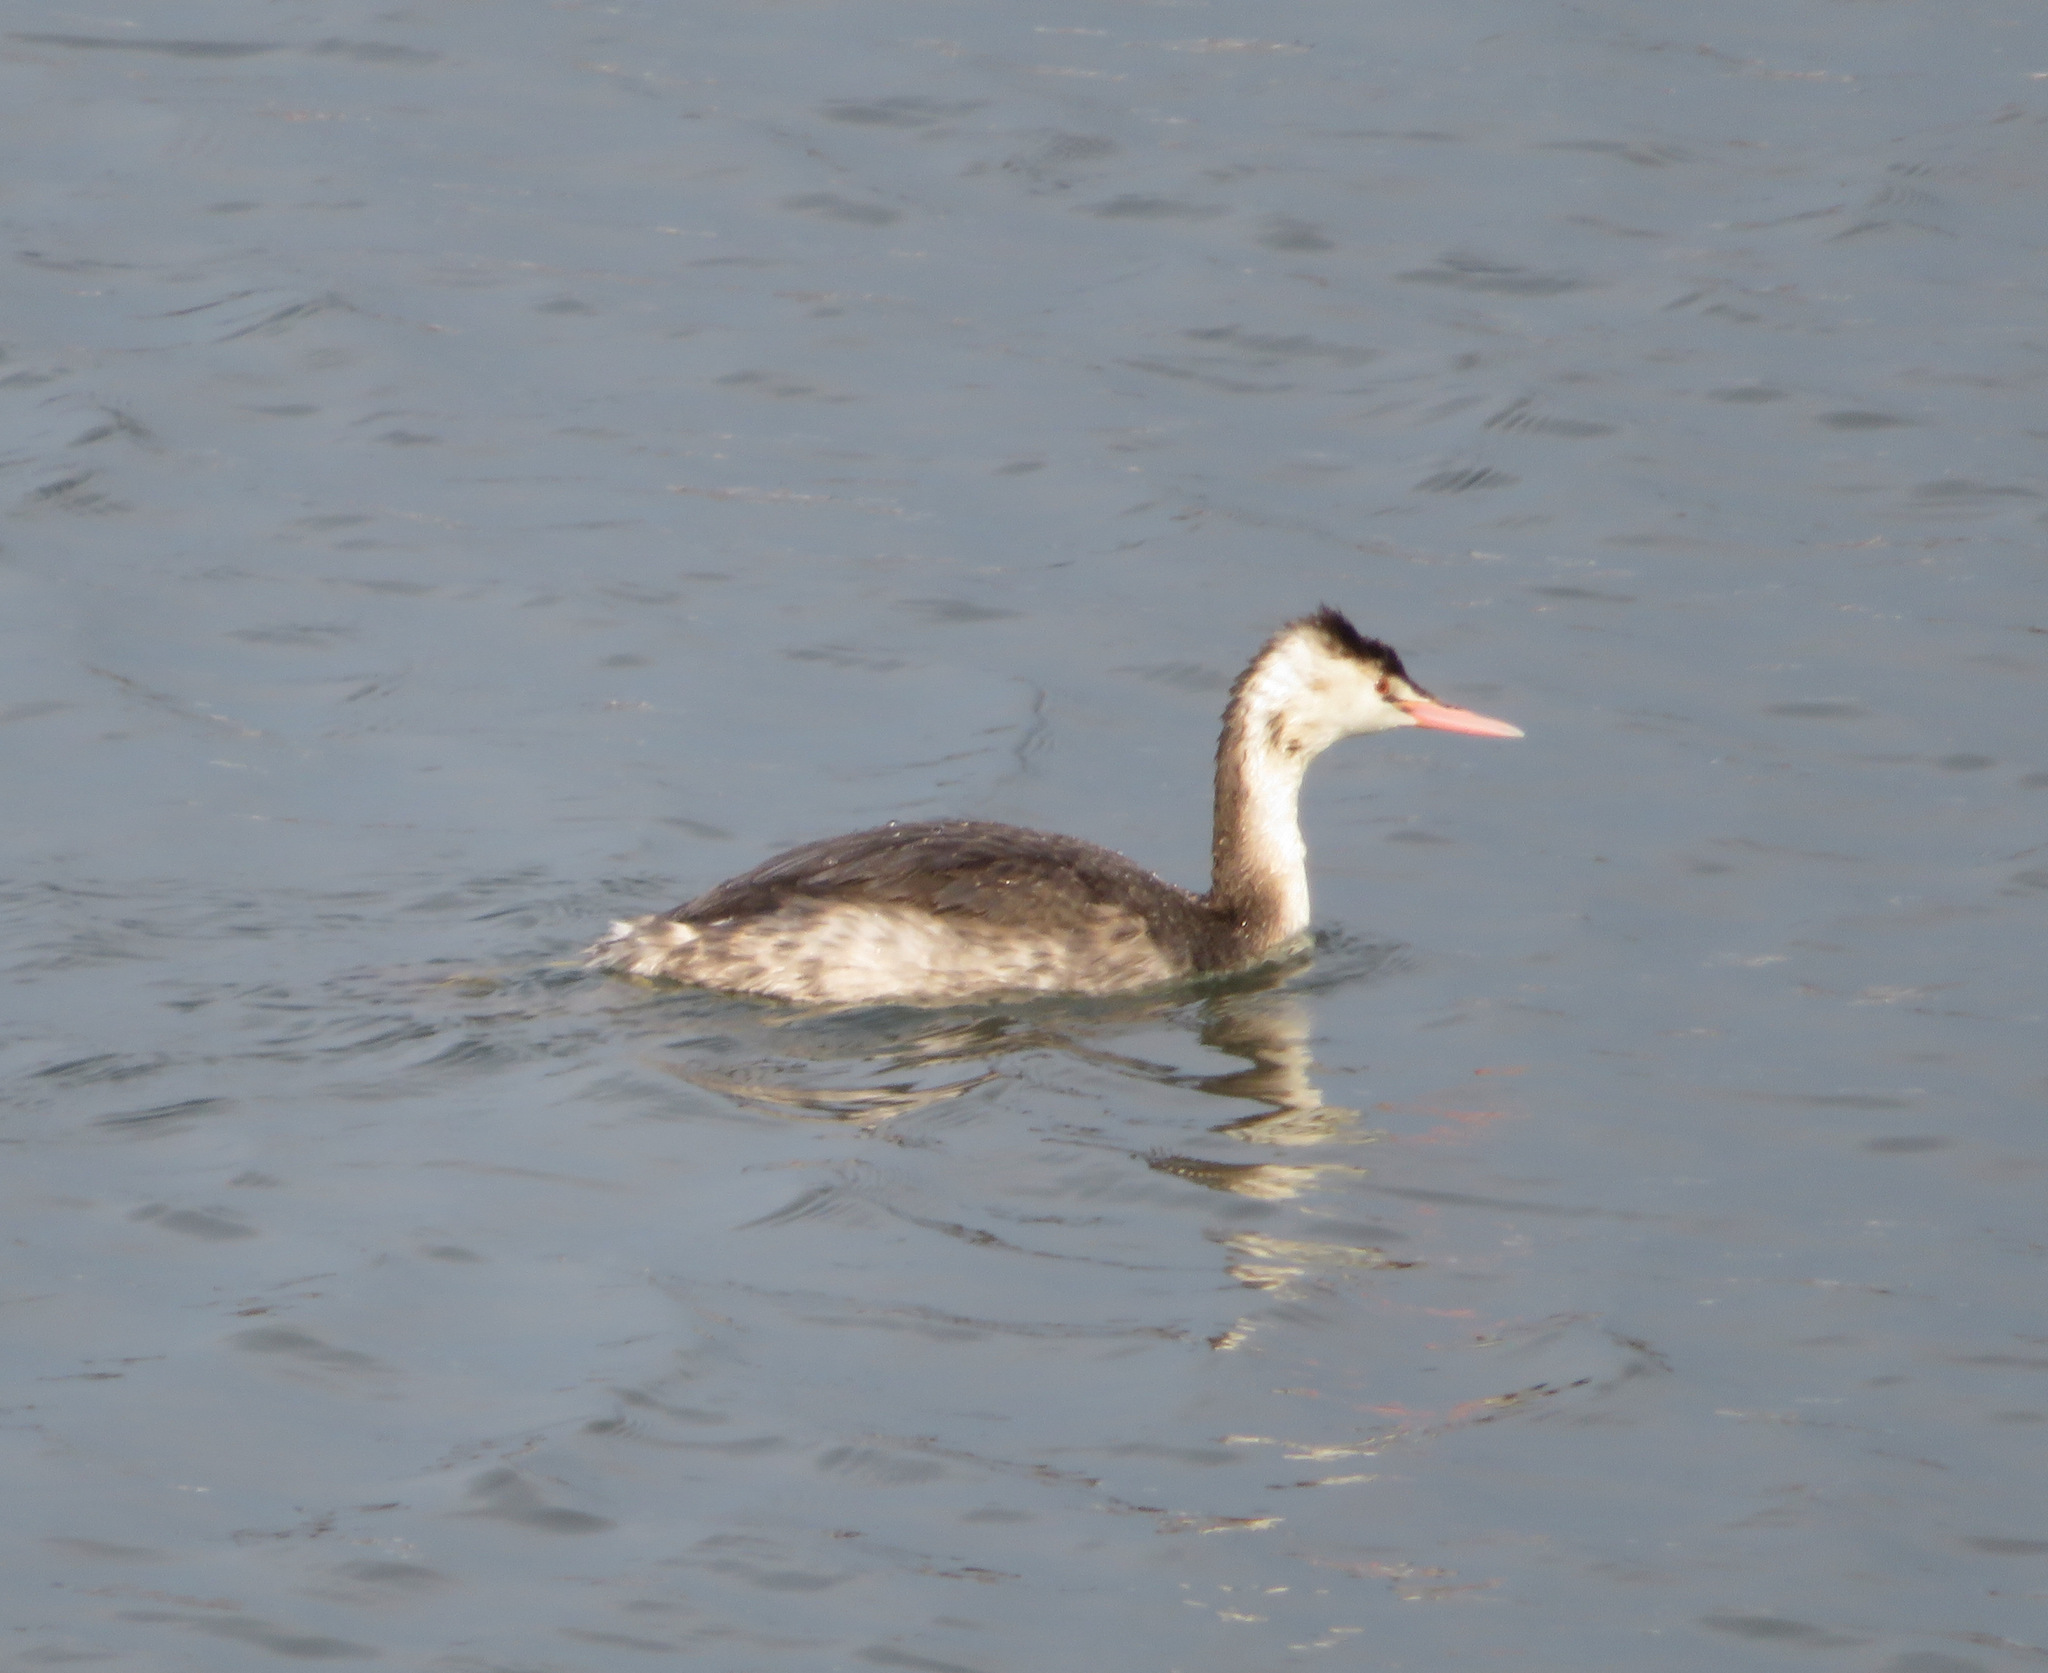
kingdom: Animalia
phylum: Chordata
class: Aves
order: Podicipediformes
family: Podicipedidae
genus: Podiceps
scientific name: Podiceps cristatus
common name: Great crested grebe
